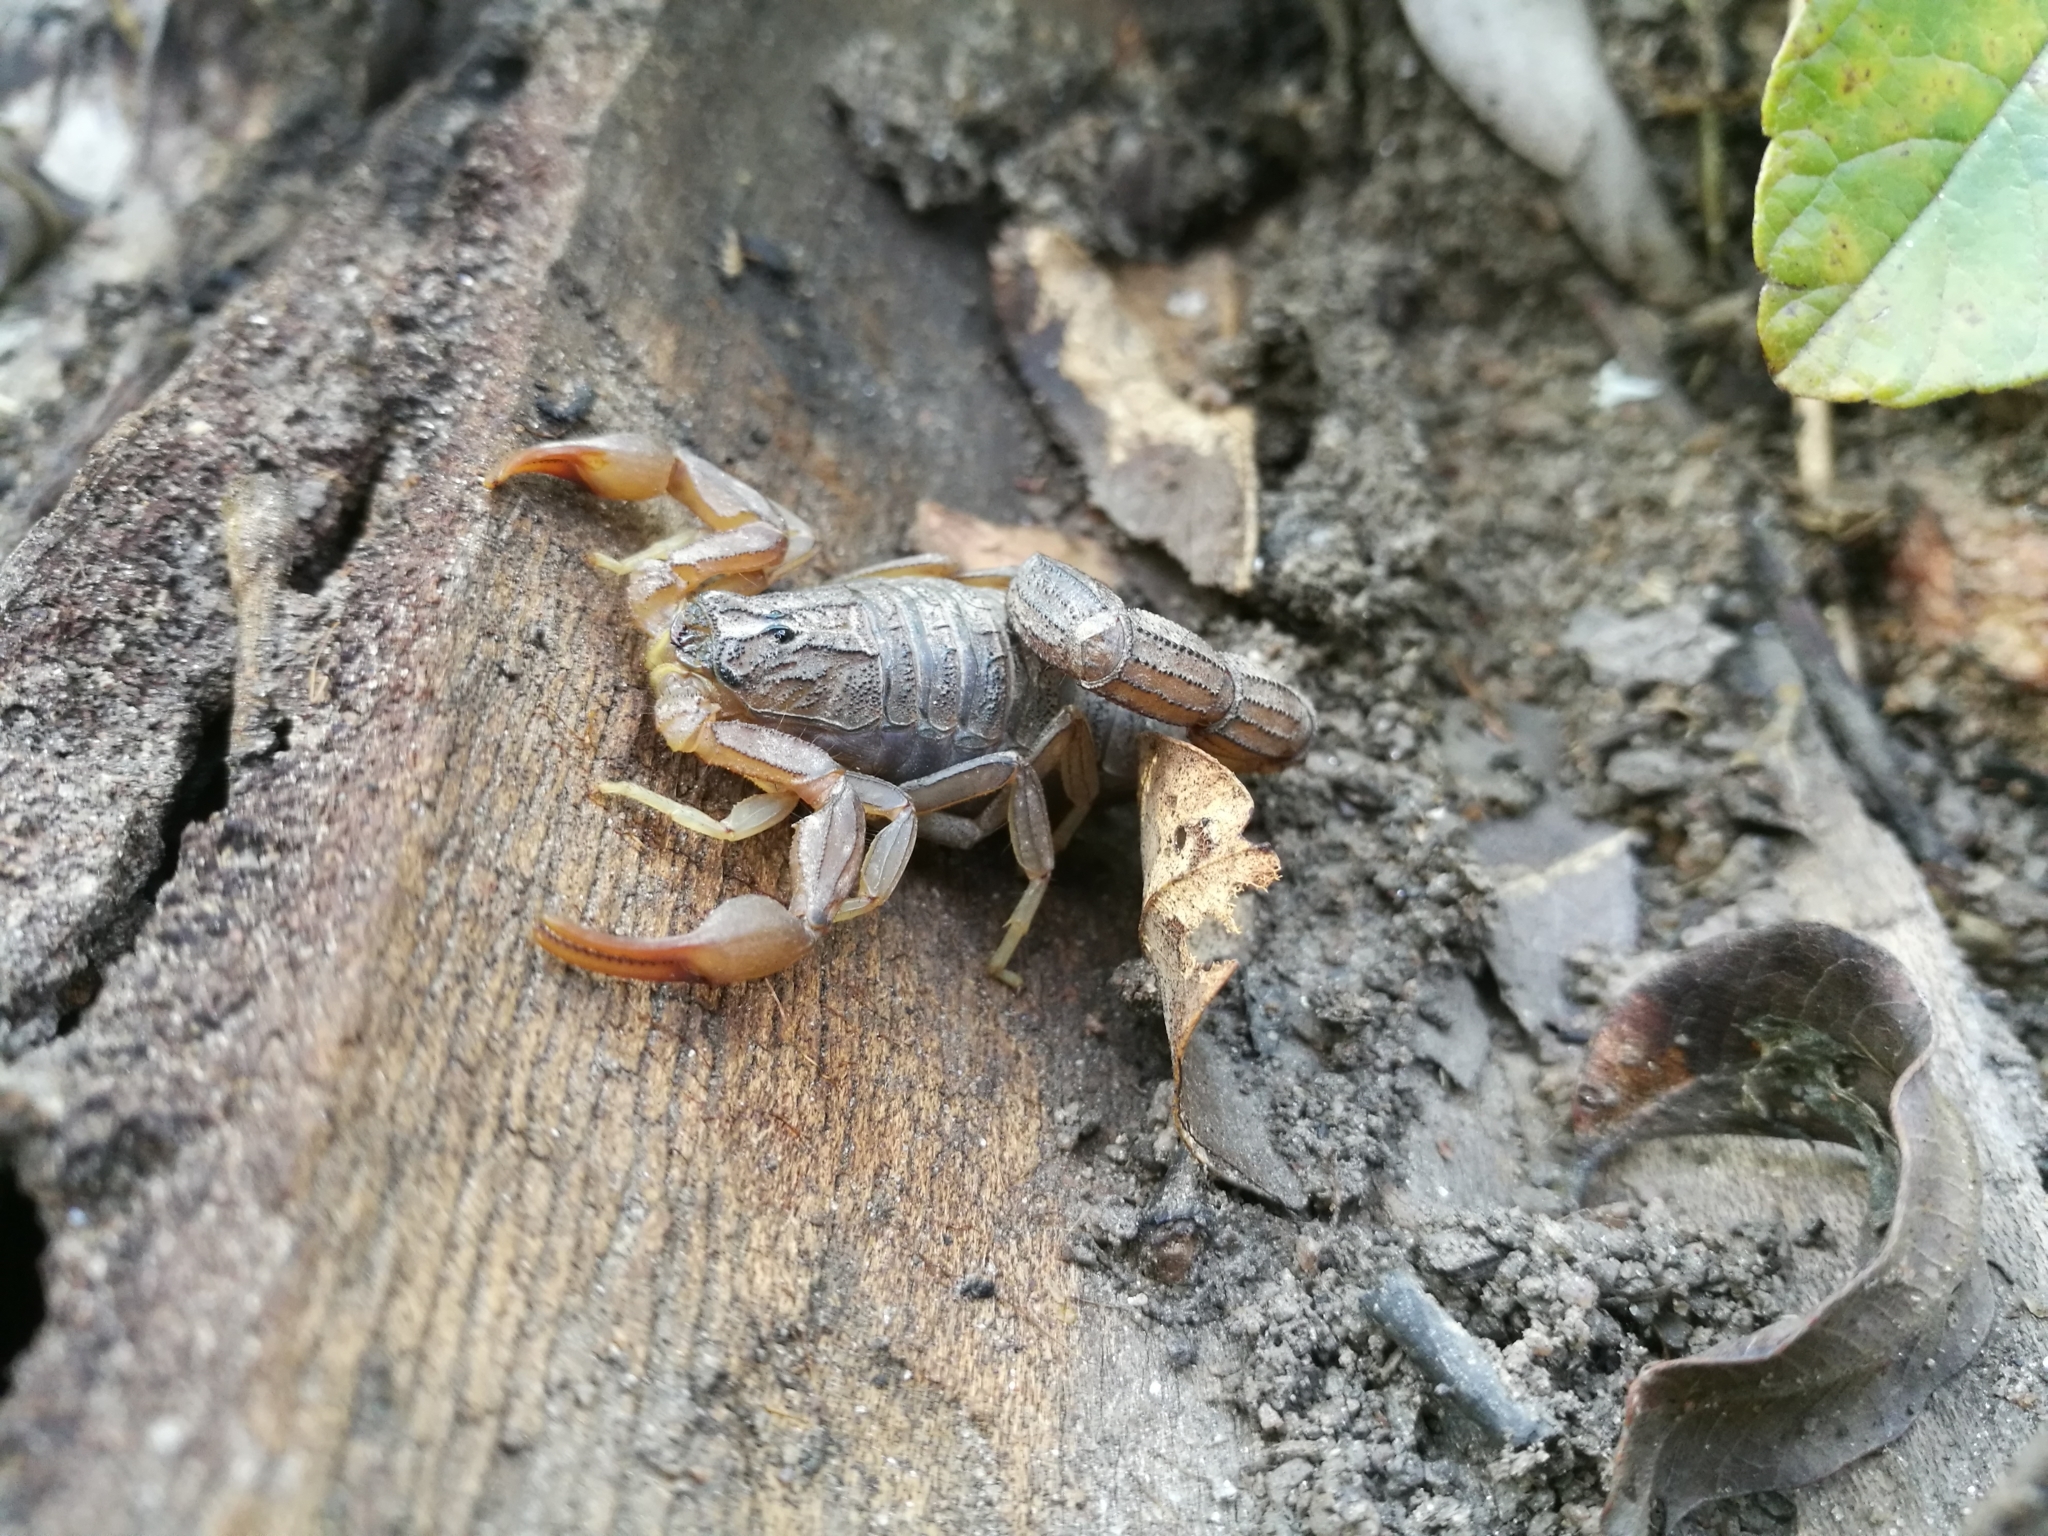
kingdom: Animalia
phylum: Arthropoda
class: Arachnida
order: Scorpiones
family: Buthidae
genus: Hottentotta
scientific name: Hottentotta hottentotta
